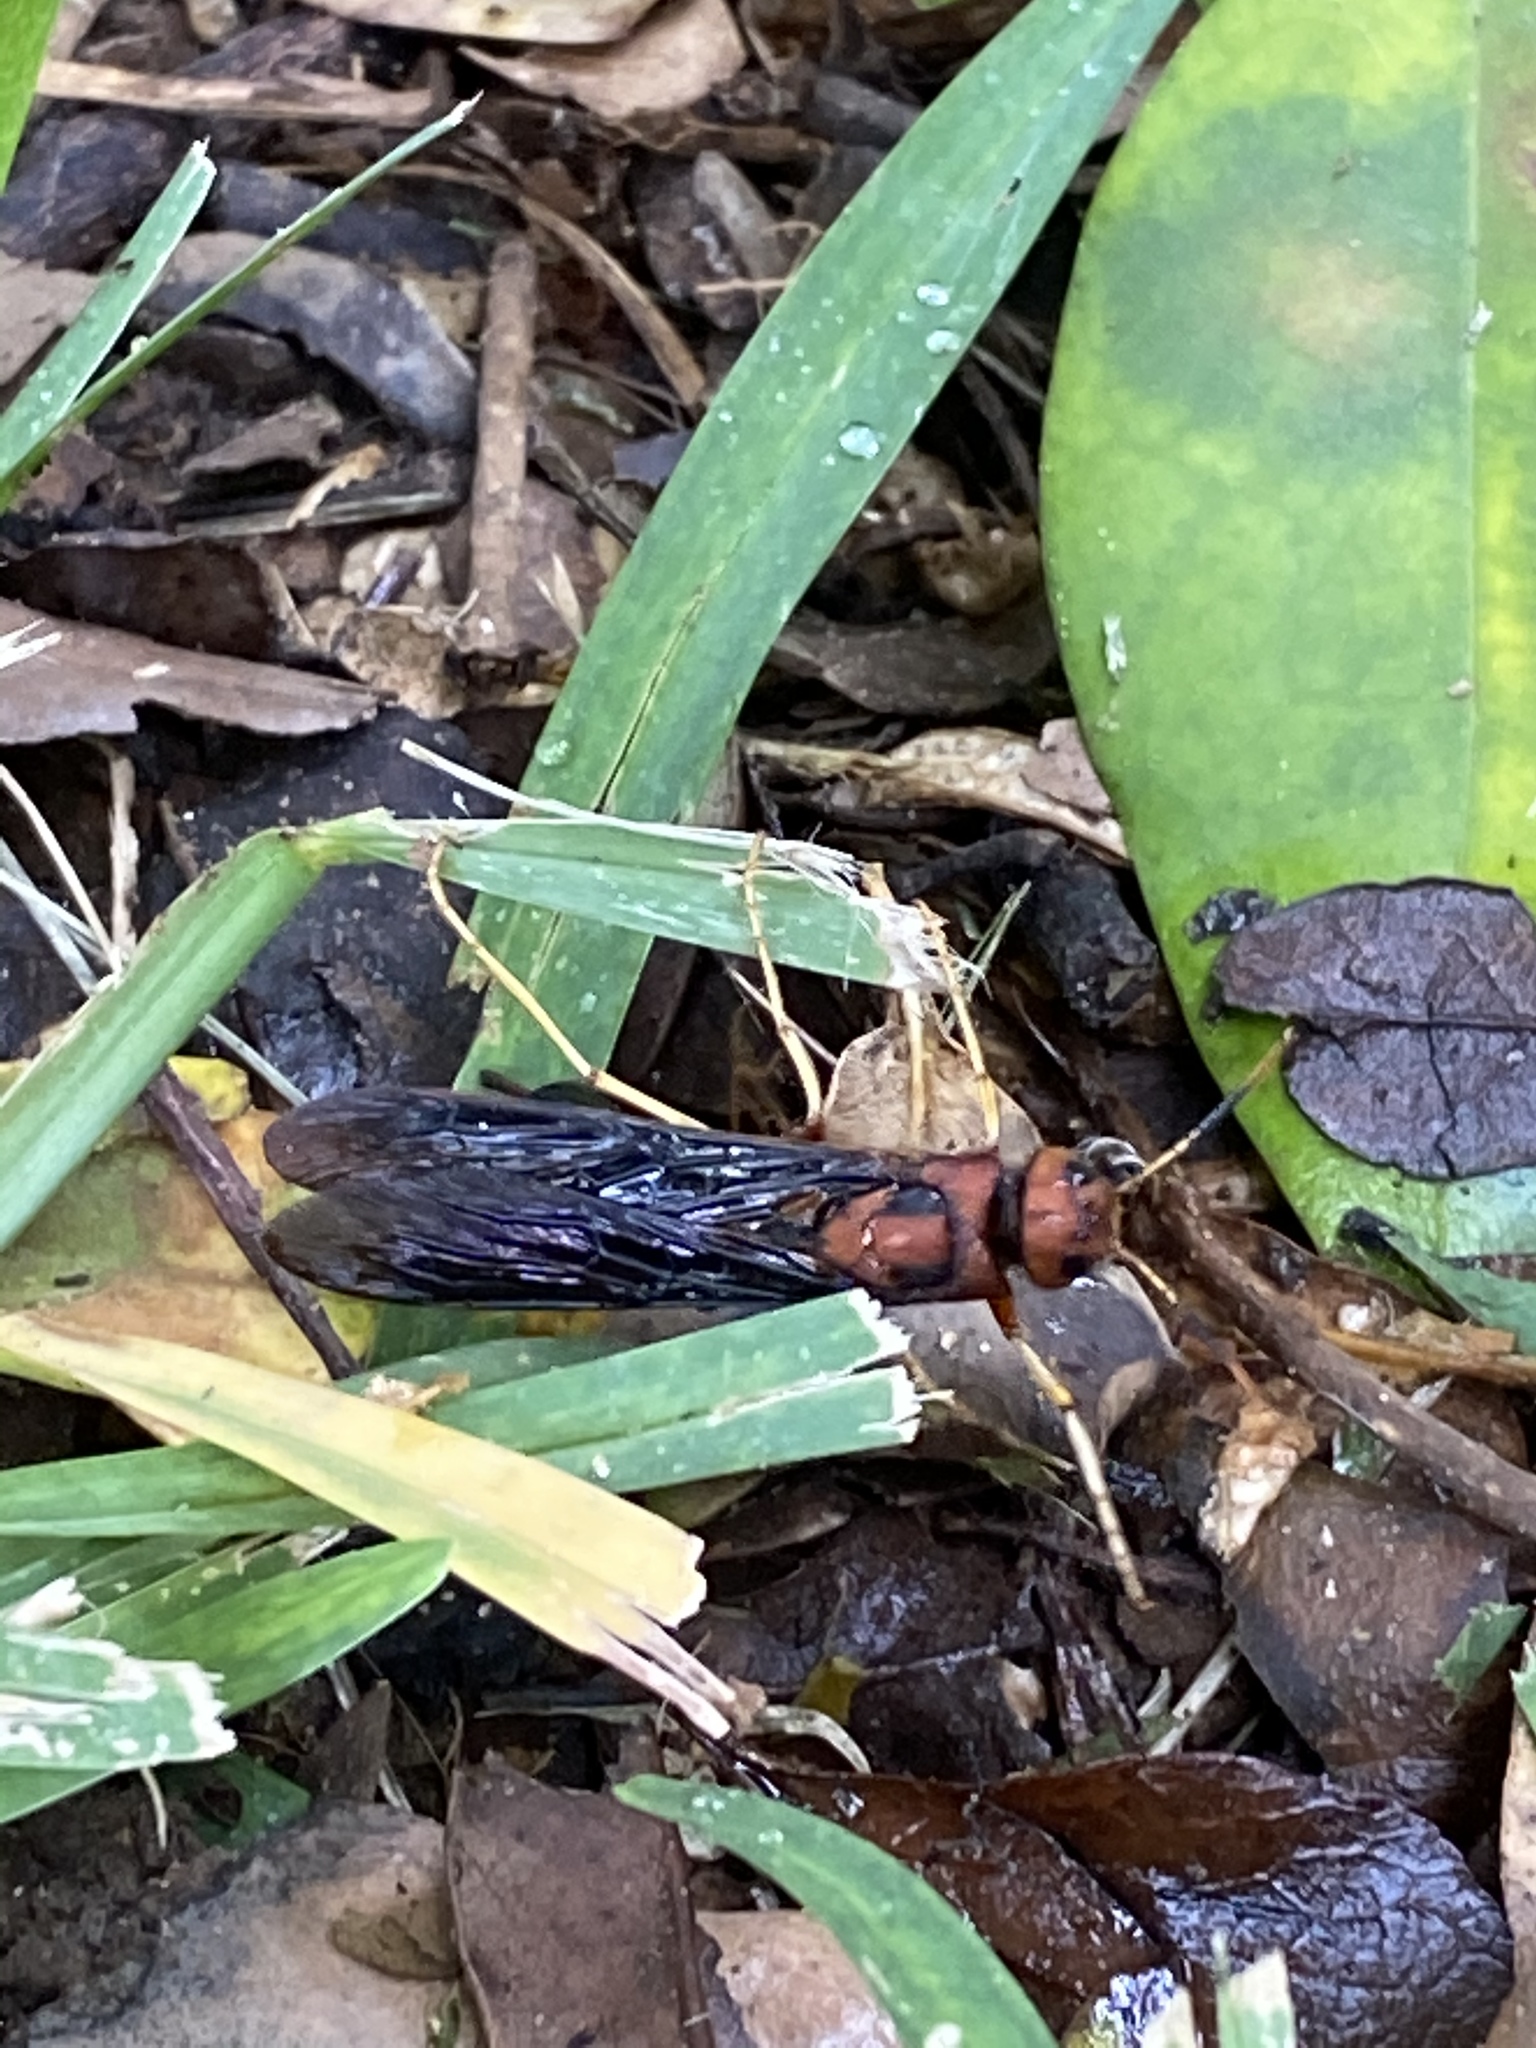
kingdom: Animalia
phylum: Arthropoda
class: Insecta
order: Hymenoptera
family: Siricidae
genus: Tremex
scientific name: Tremex columba
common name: Wasp
